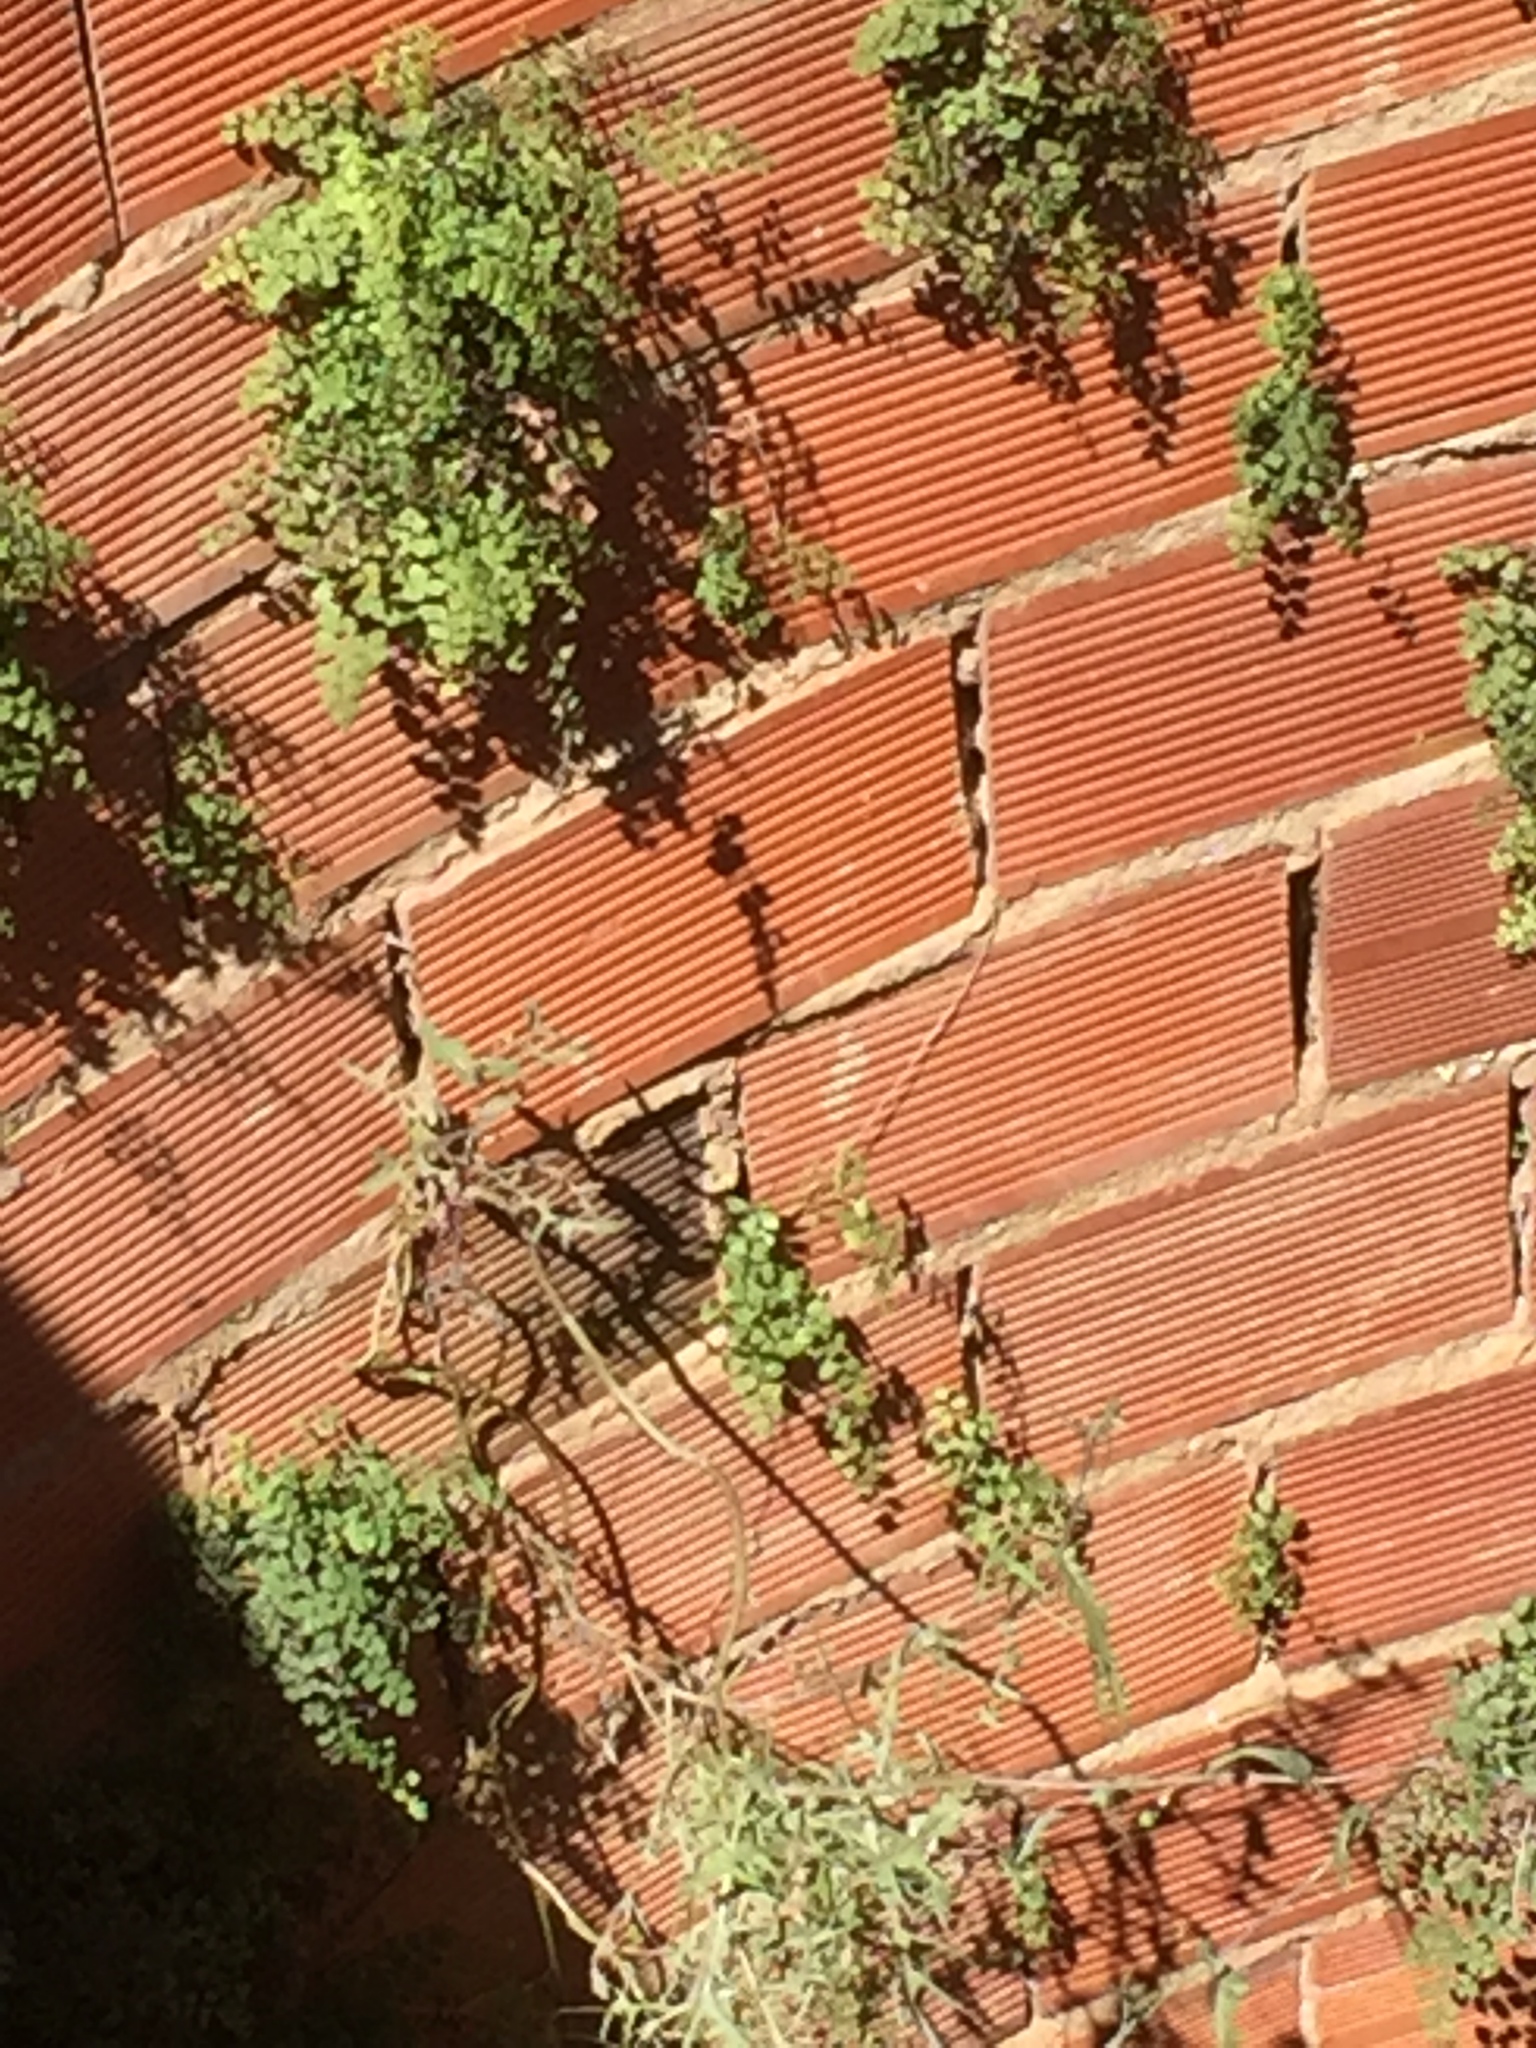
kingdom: Plantae
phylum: Tracheophyta
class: Polypodiopsida
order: Polypodiales
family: Pteridaceae
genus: Adiantum
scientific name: Adiantum capillus-veneris
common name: Maidenhair fern
